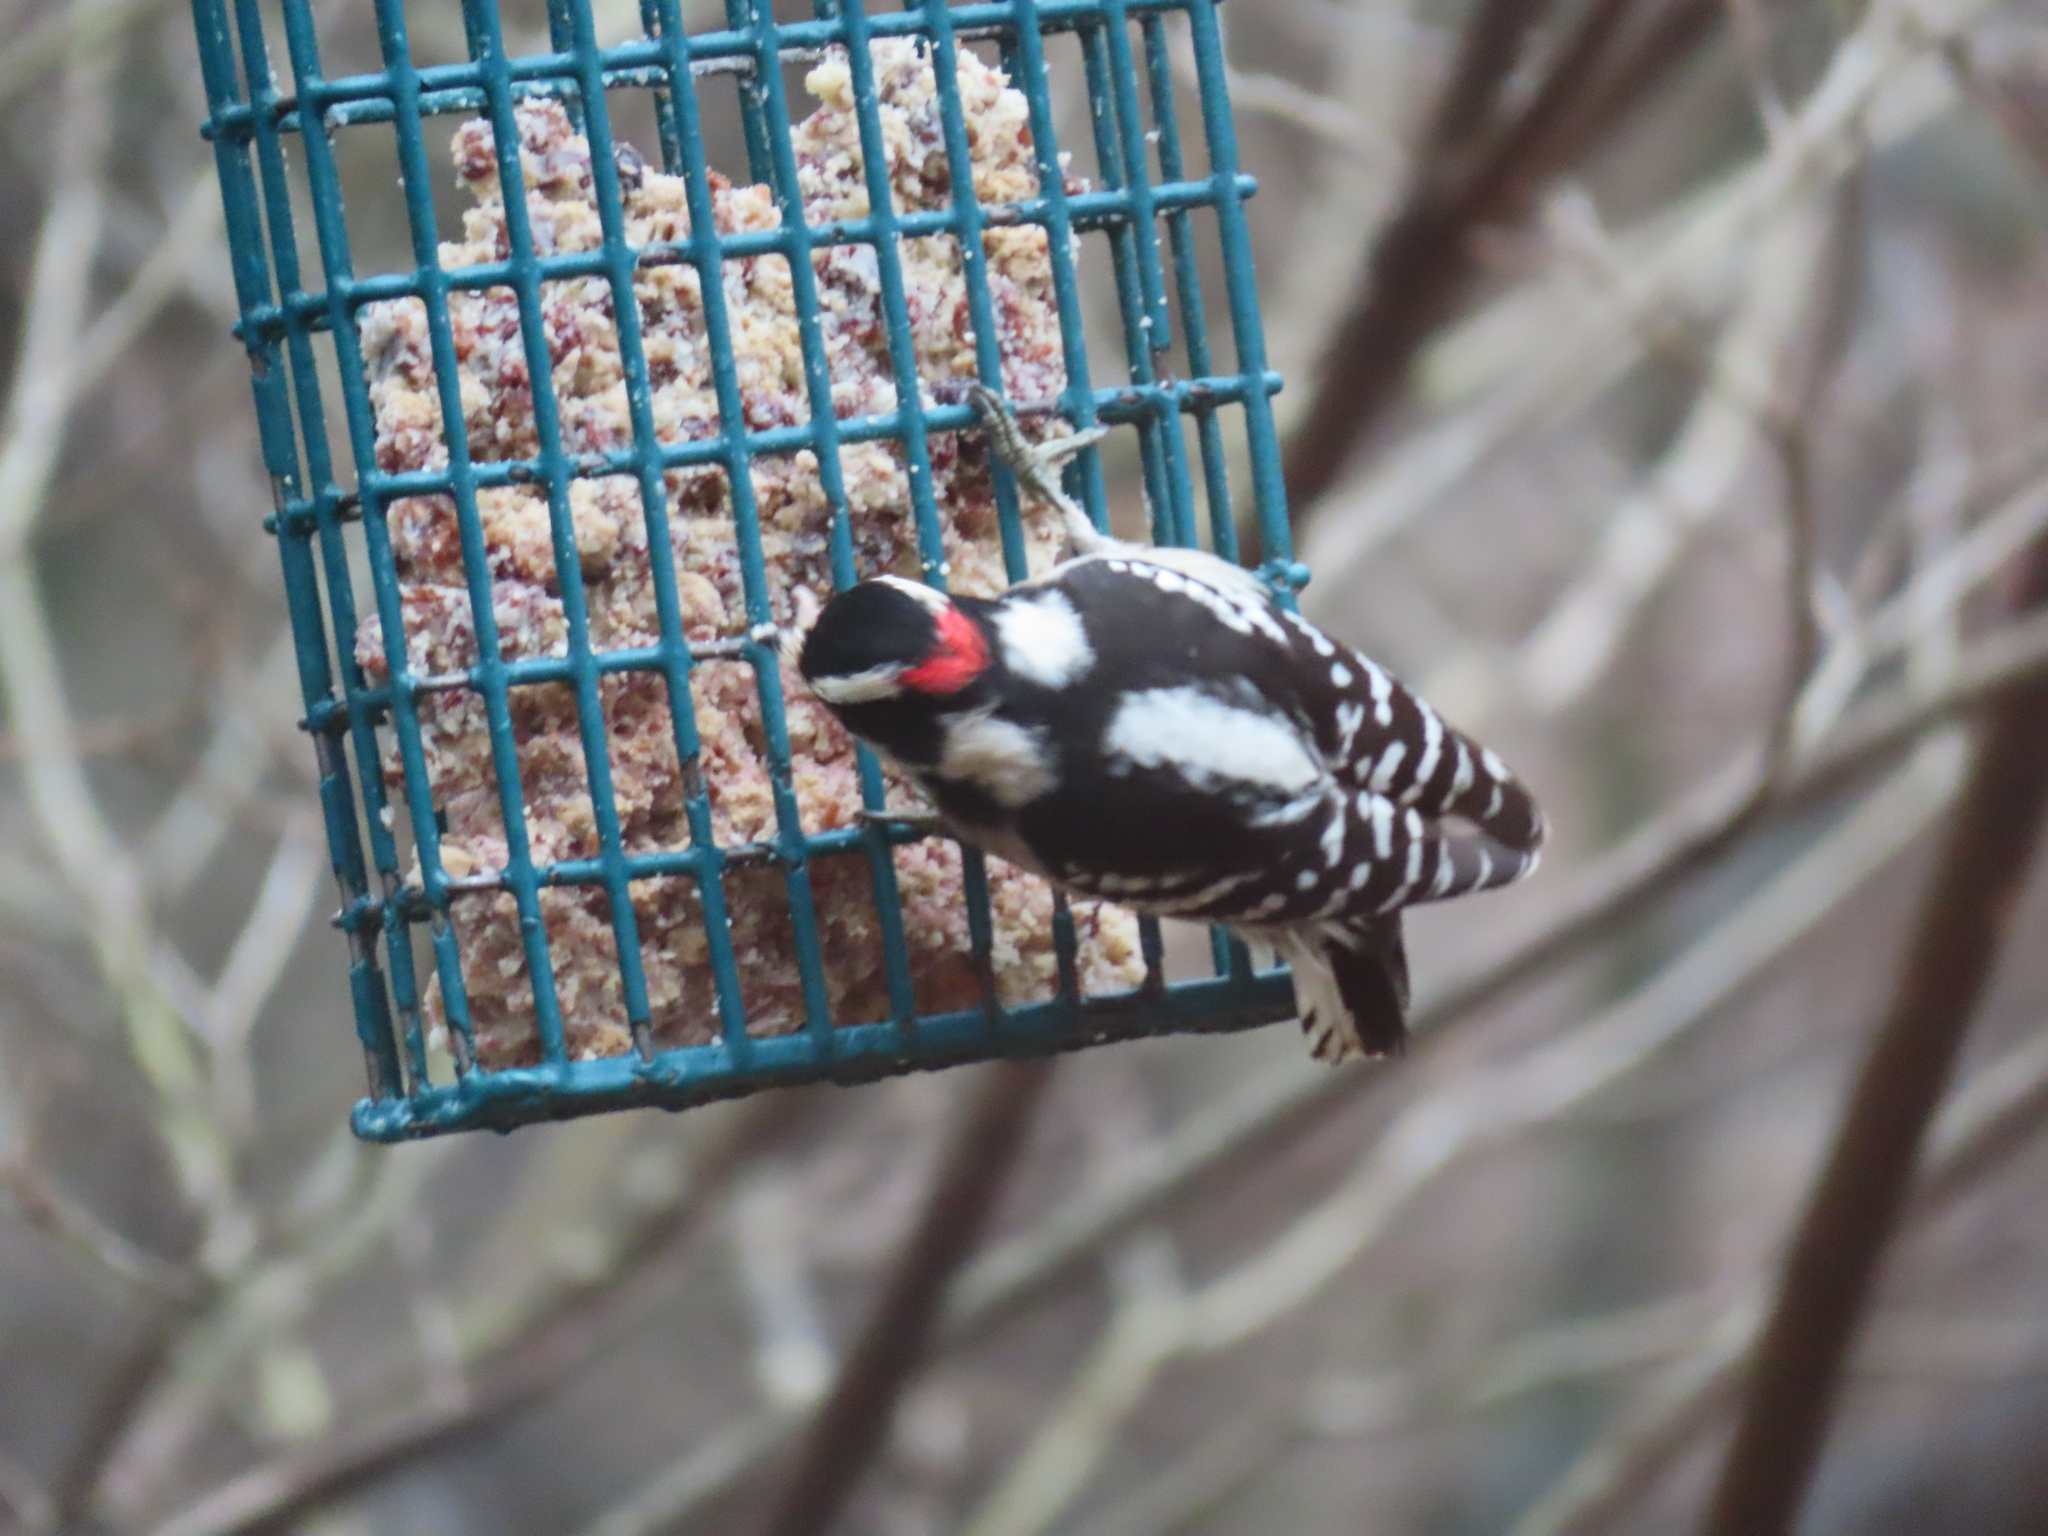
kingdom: Animalia
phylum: Chordata
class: Aves
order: Piciformes
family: Picidae
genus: Dryobates
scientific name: Dryobates pubescens
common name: Downy woodpecker
